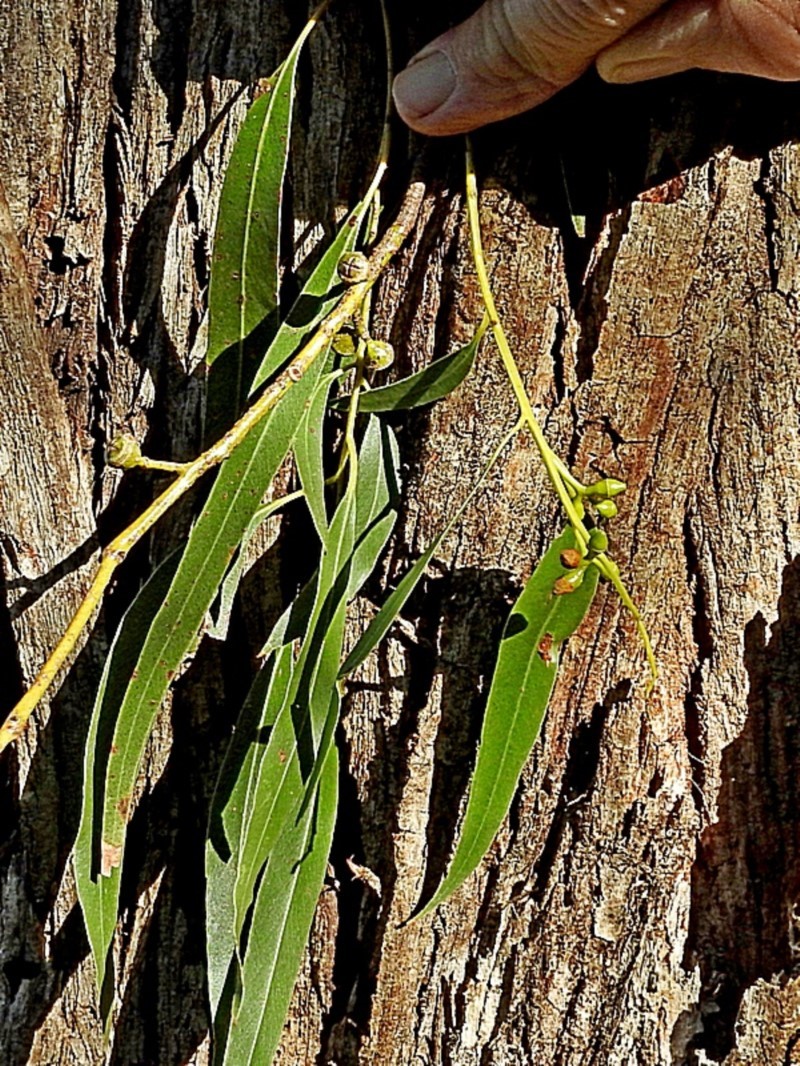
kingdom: Plantae
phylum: Tracheophyta
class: Magnoliopsida
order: Myrtales
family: Myrtaceae
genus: Eucalyptus
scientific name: Eucalyptus viminalis
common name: Manna gum
